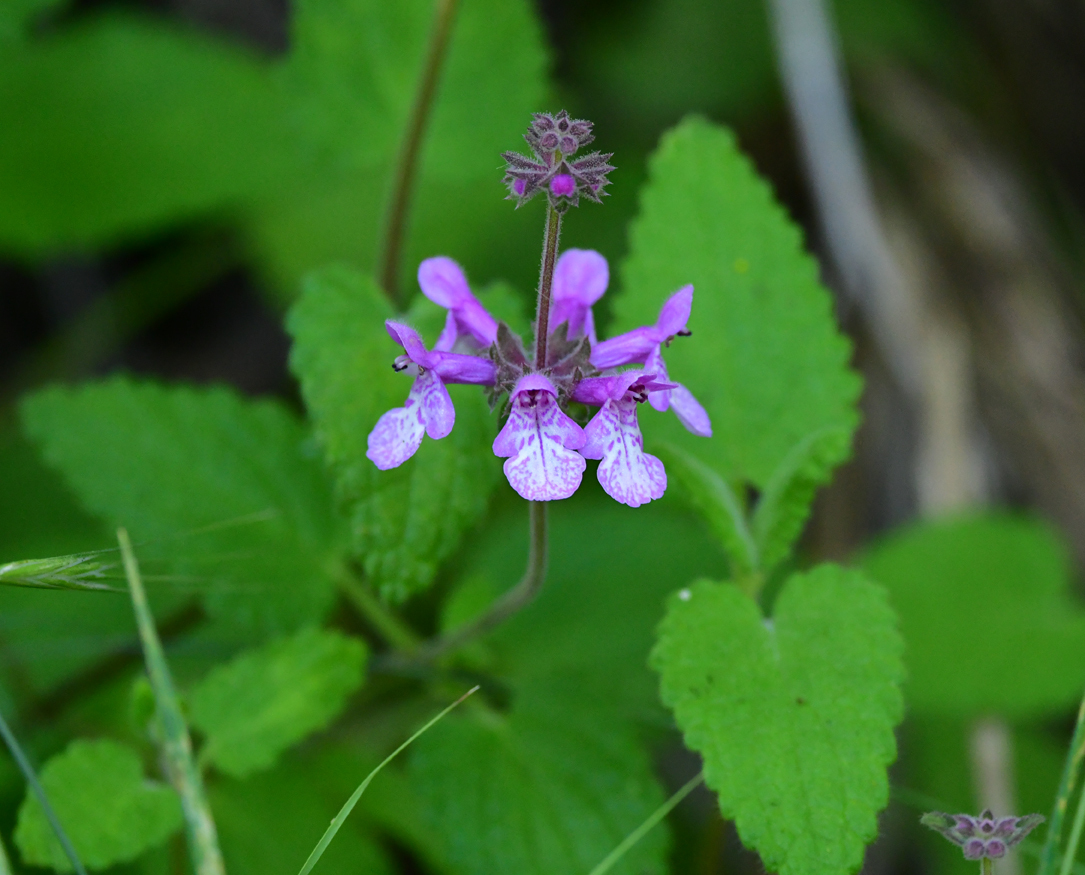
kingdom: Plantae
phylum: Tracheophyta
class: Magnoliopsida
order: Lamiales
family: Lamiaceae
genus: Stachys
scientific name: Stachys bullata
